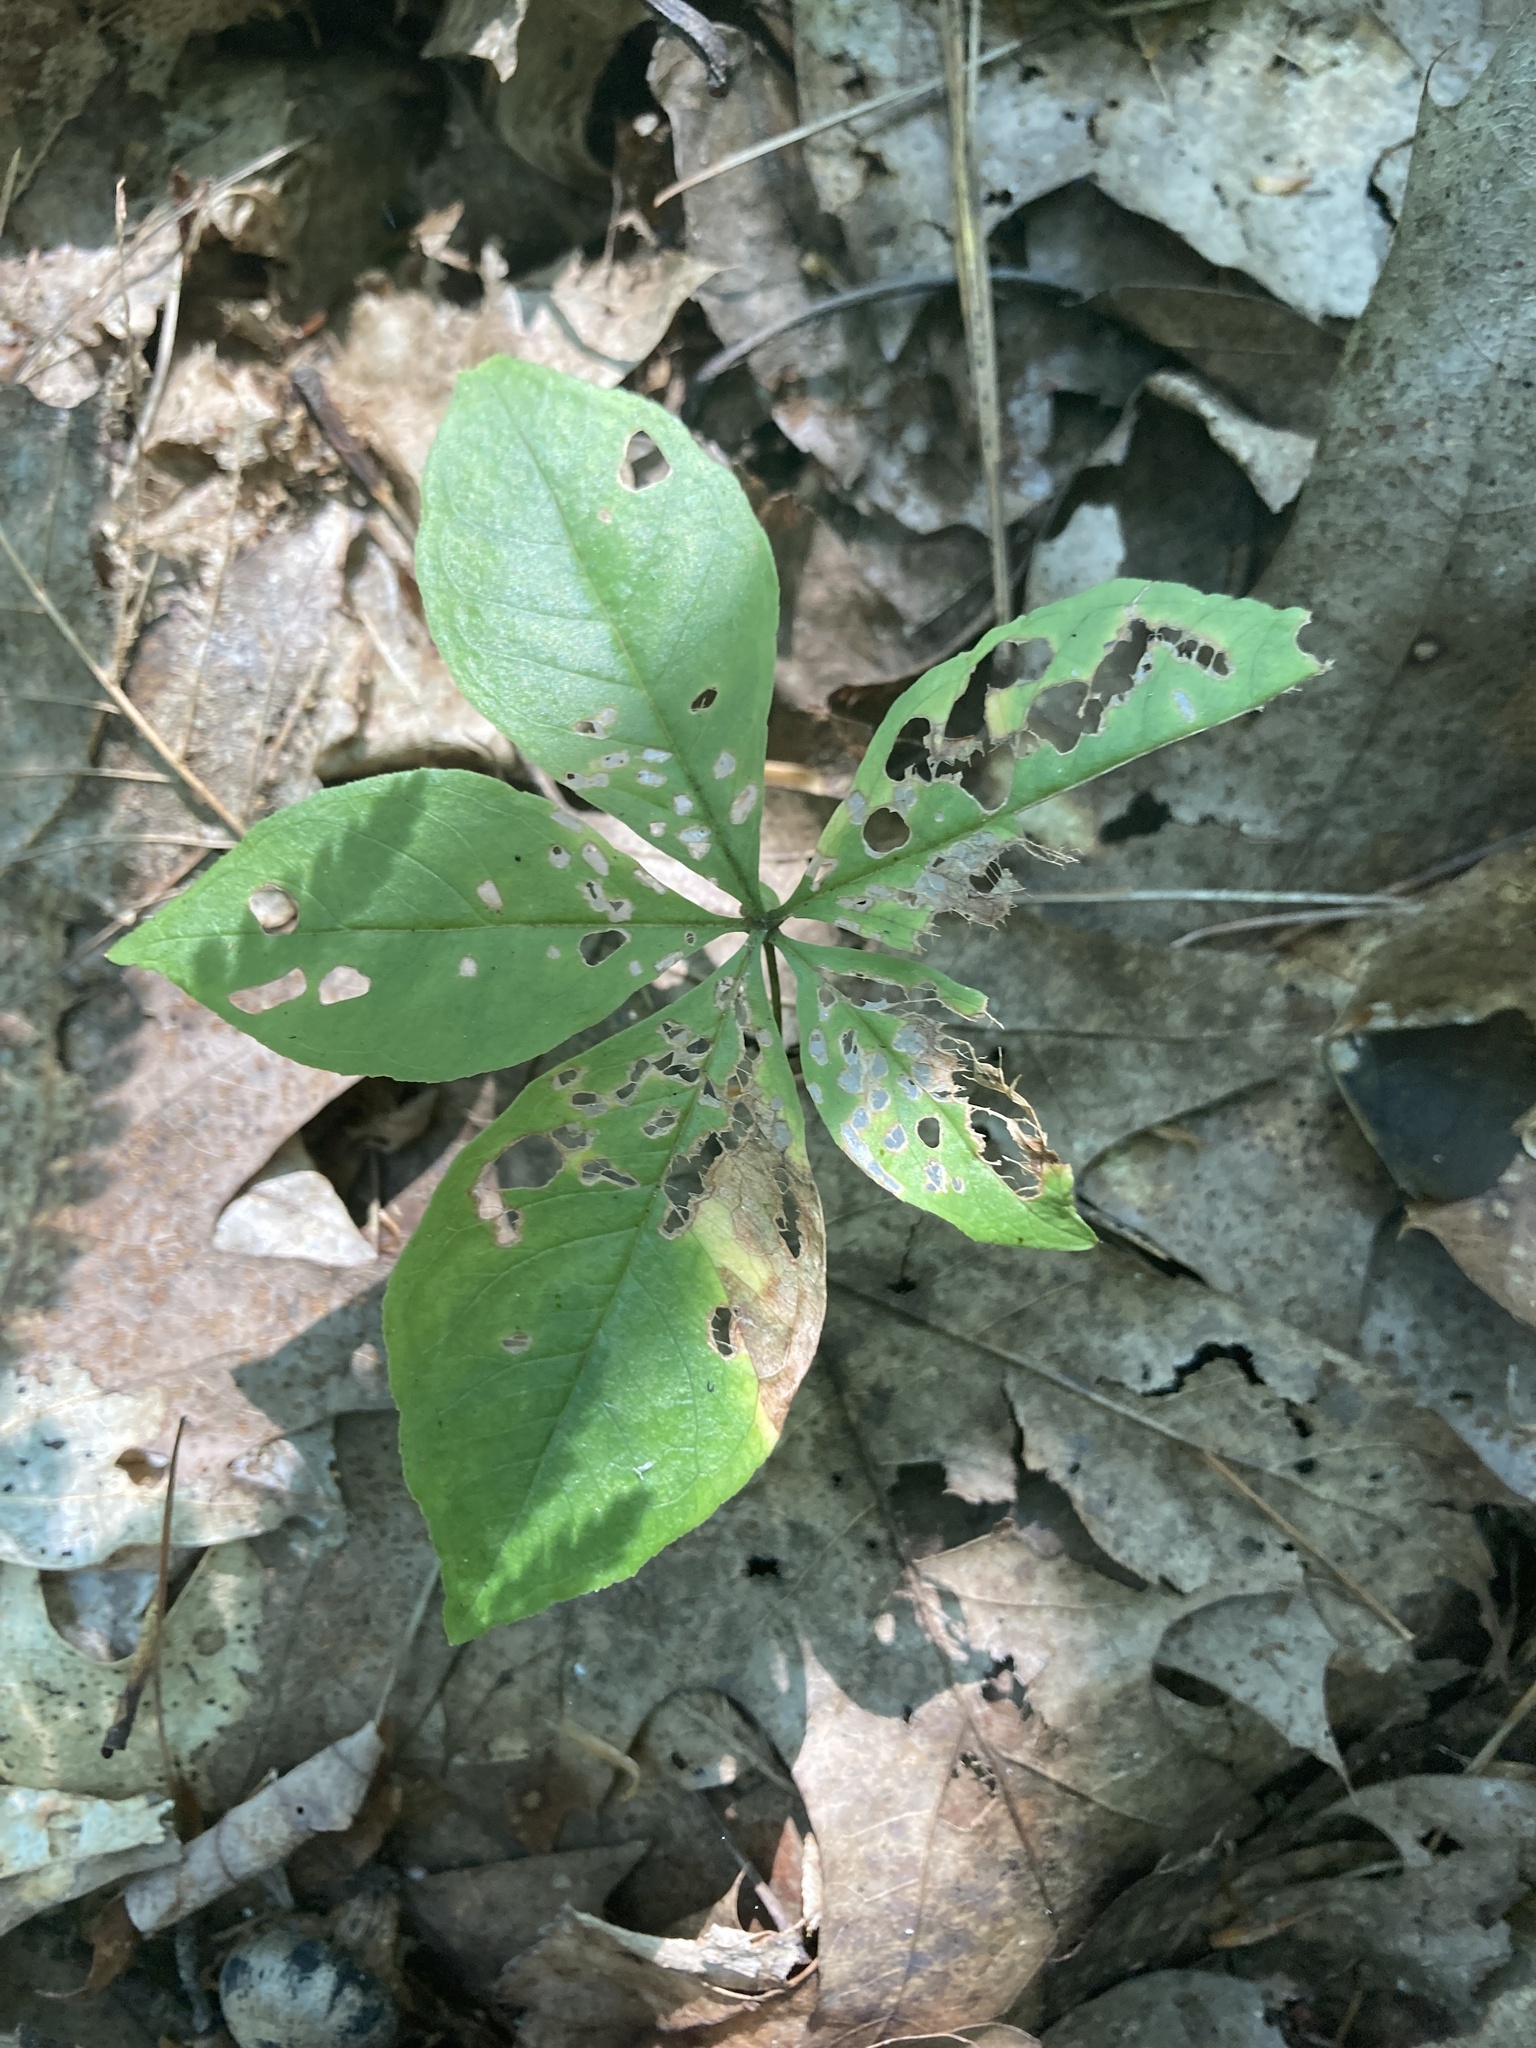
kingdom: Plantae
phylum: Tracheophyta
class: Magnoliopsida
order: Ericales
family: Primulaceae
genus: Lysimachia
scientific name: Lysimachia borealis
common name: American starflower
